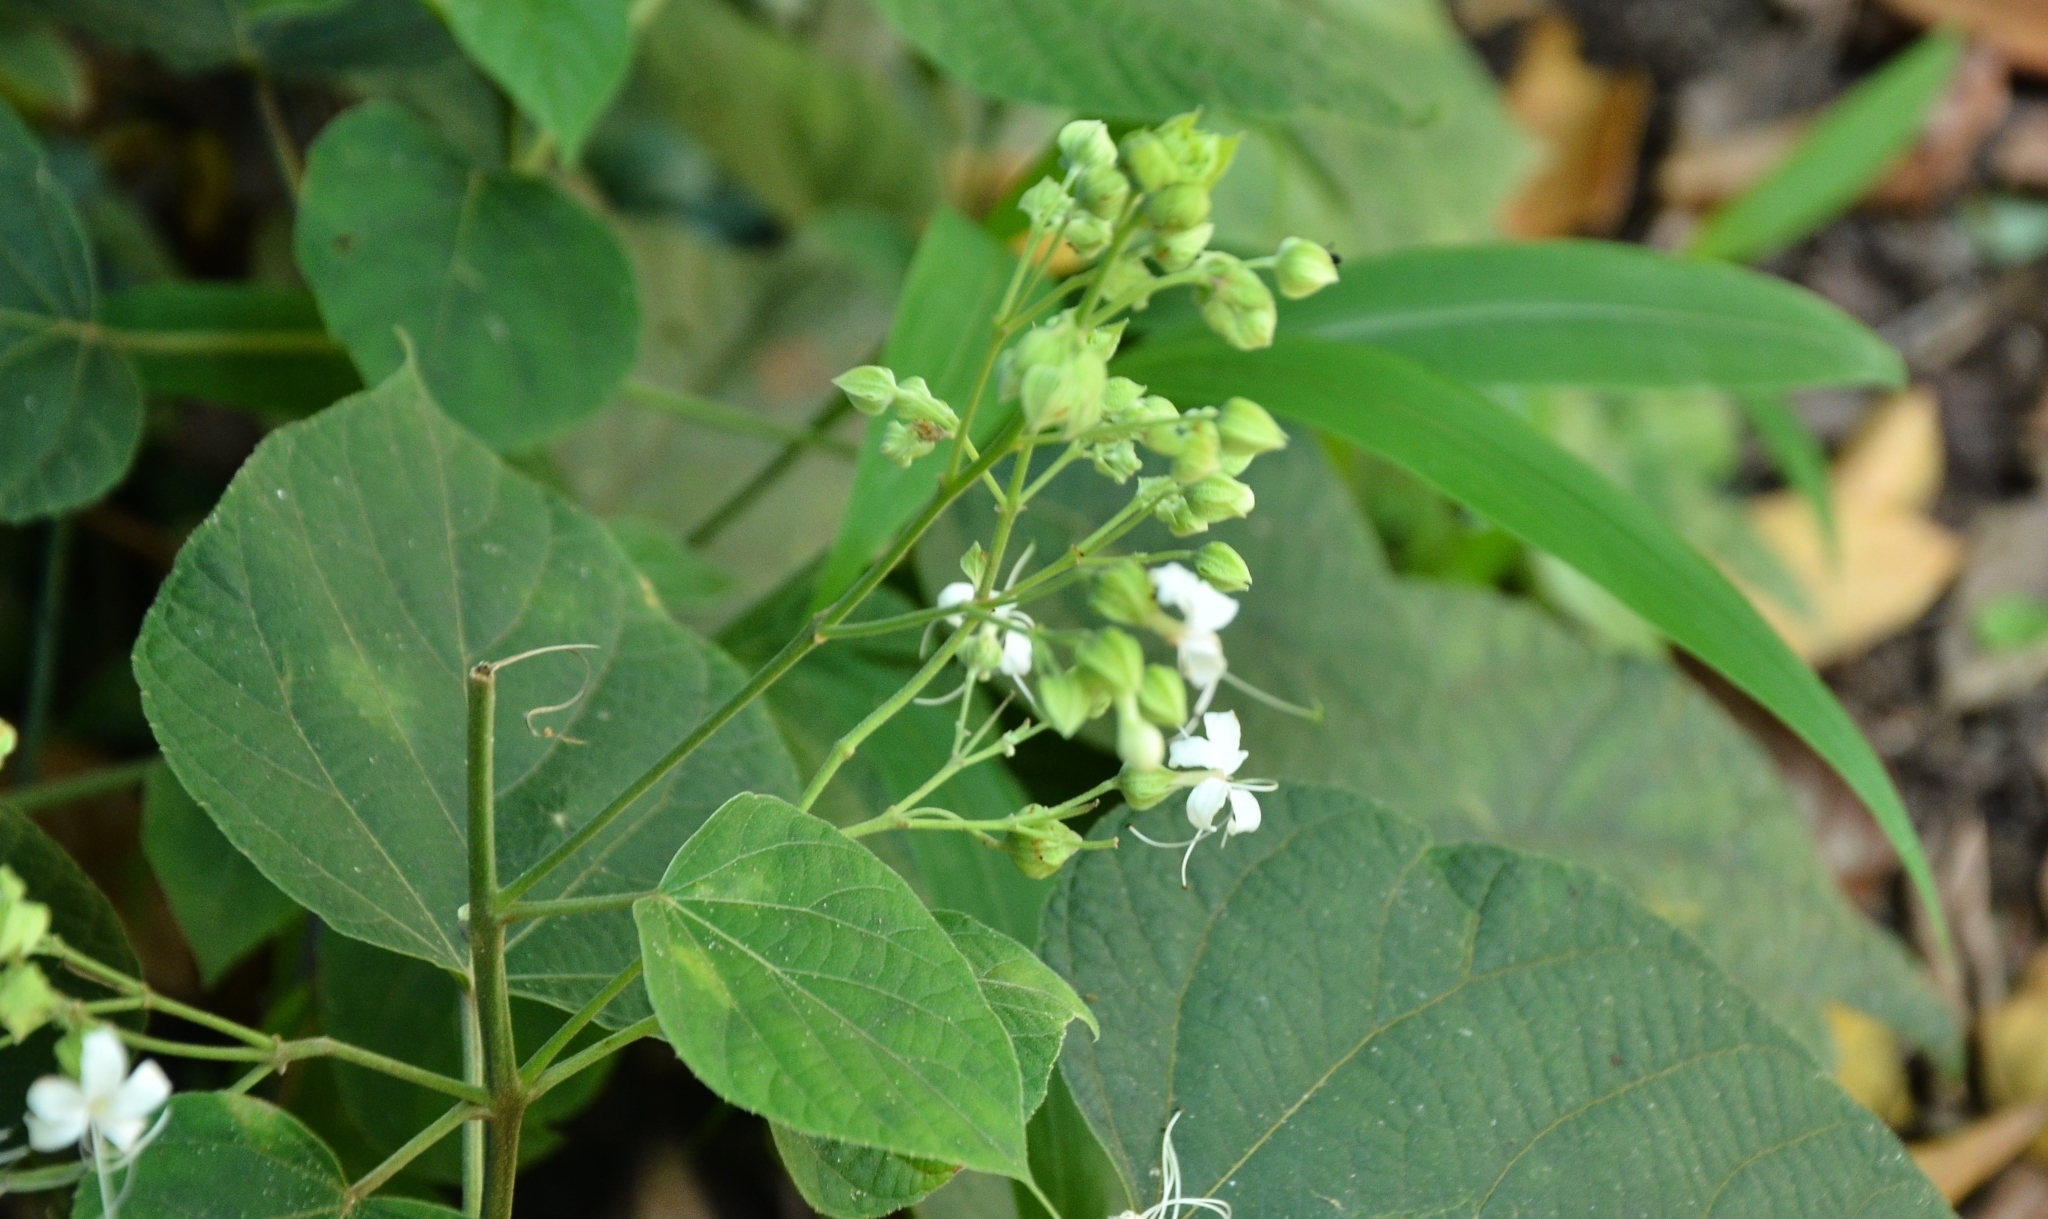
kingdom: Plantae
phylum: Tracheophyta
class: Magnoliopsida
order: Lamiales
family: Lamiaceae
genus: Clerodendrum
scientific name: Clerodendrum infortunatum
